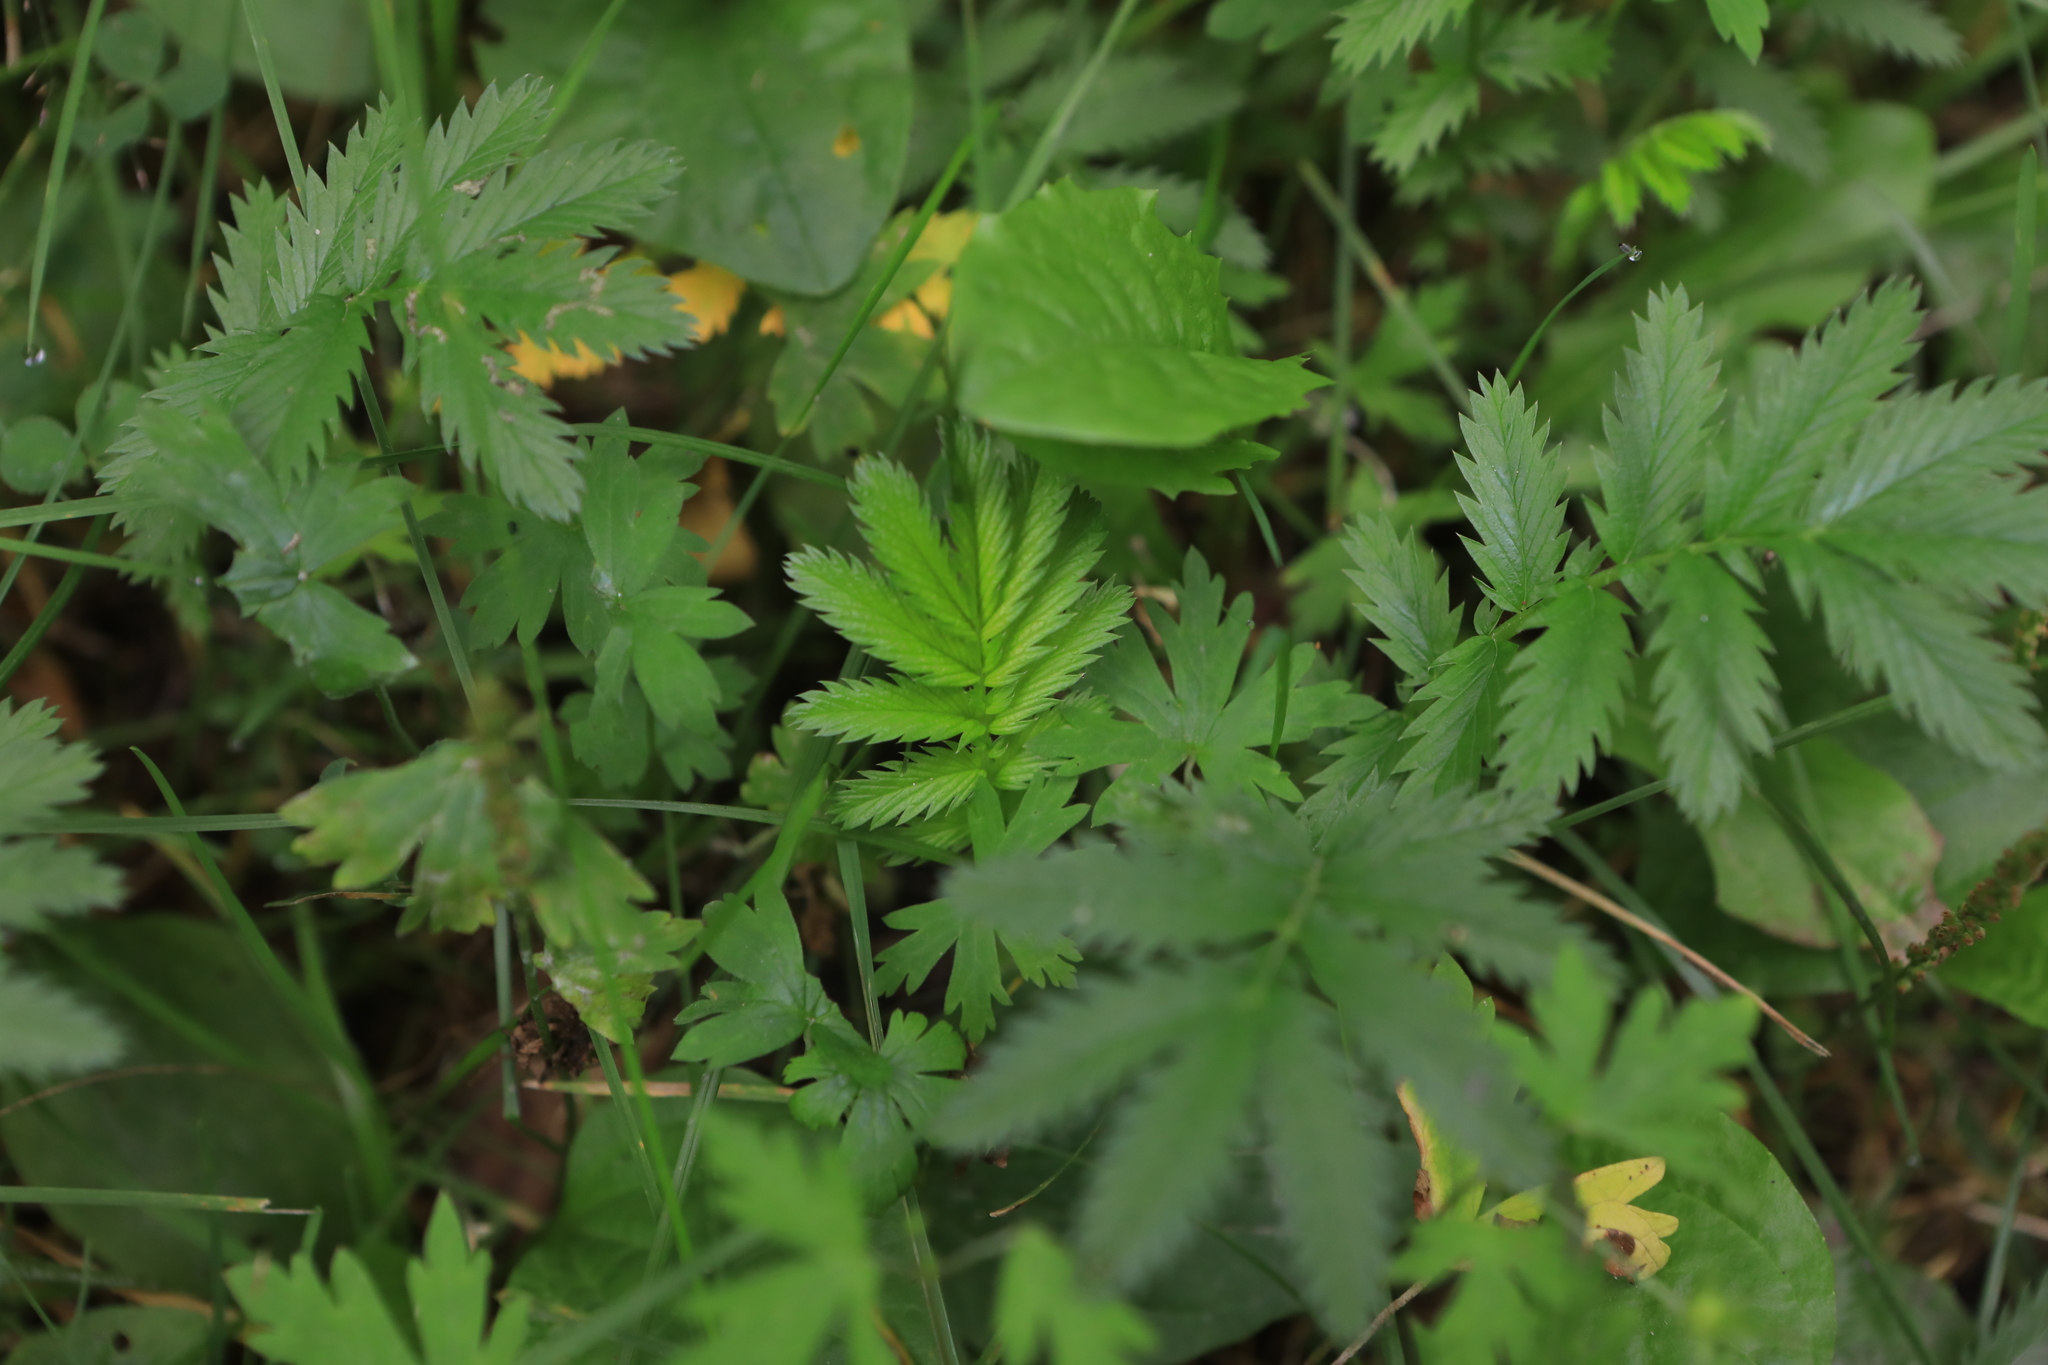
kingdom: Plantae
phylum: Tracheophyta
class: Magnoliopsida
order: Rosales
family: Rosaceae
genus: Argentina
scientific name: Argentina anserina
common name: Common silverweed
